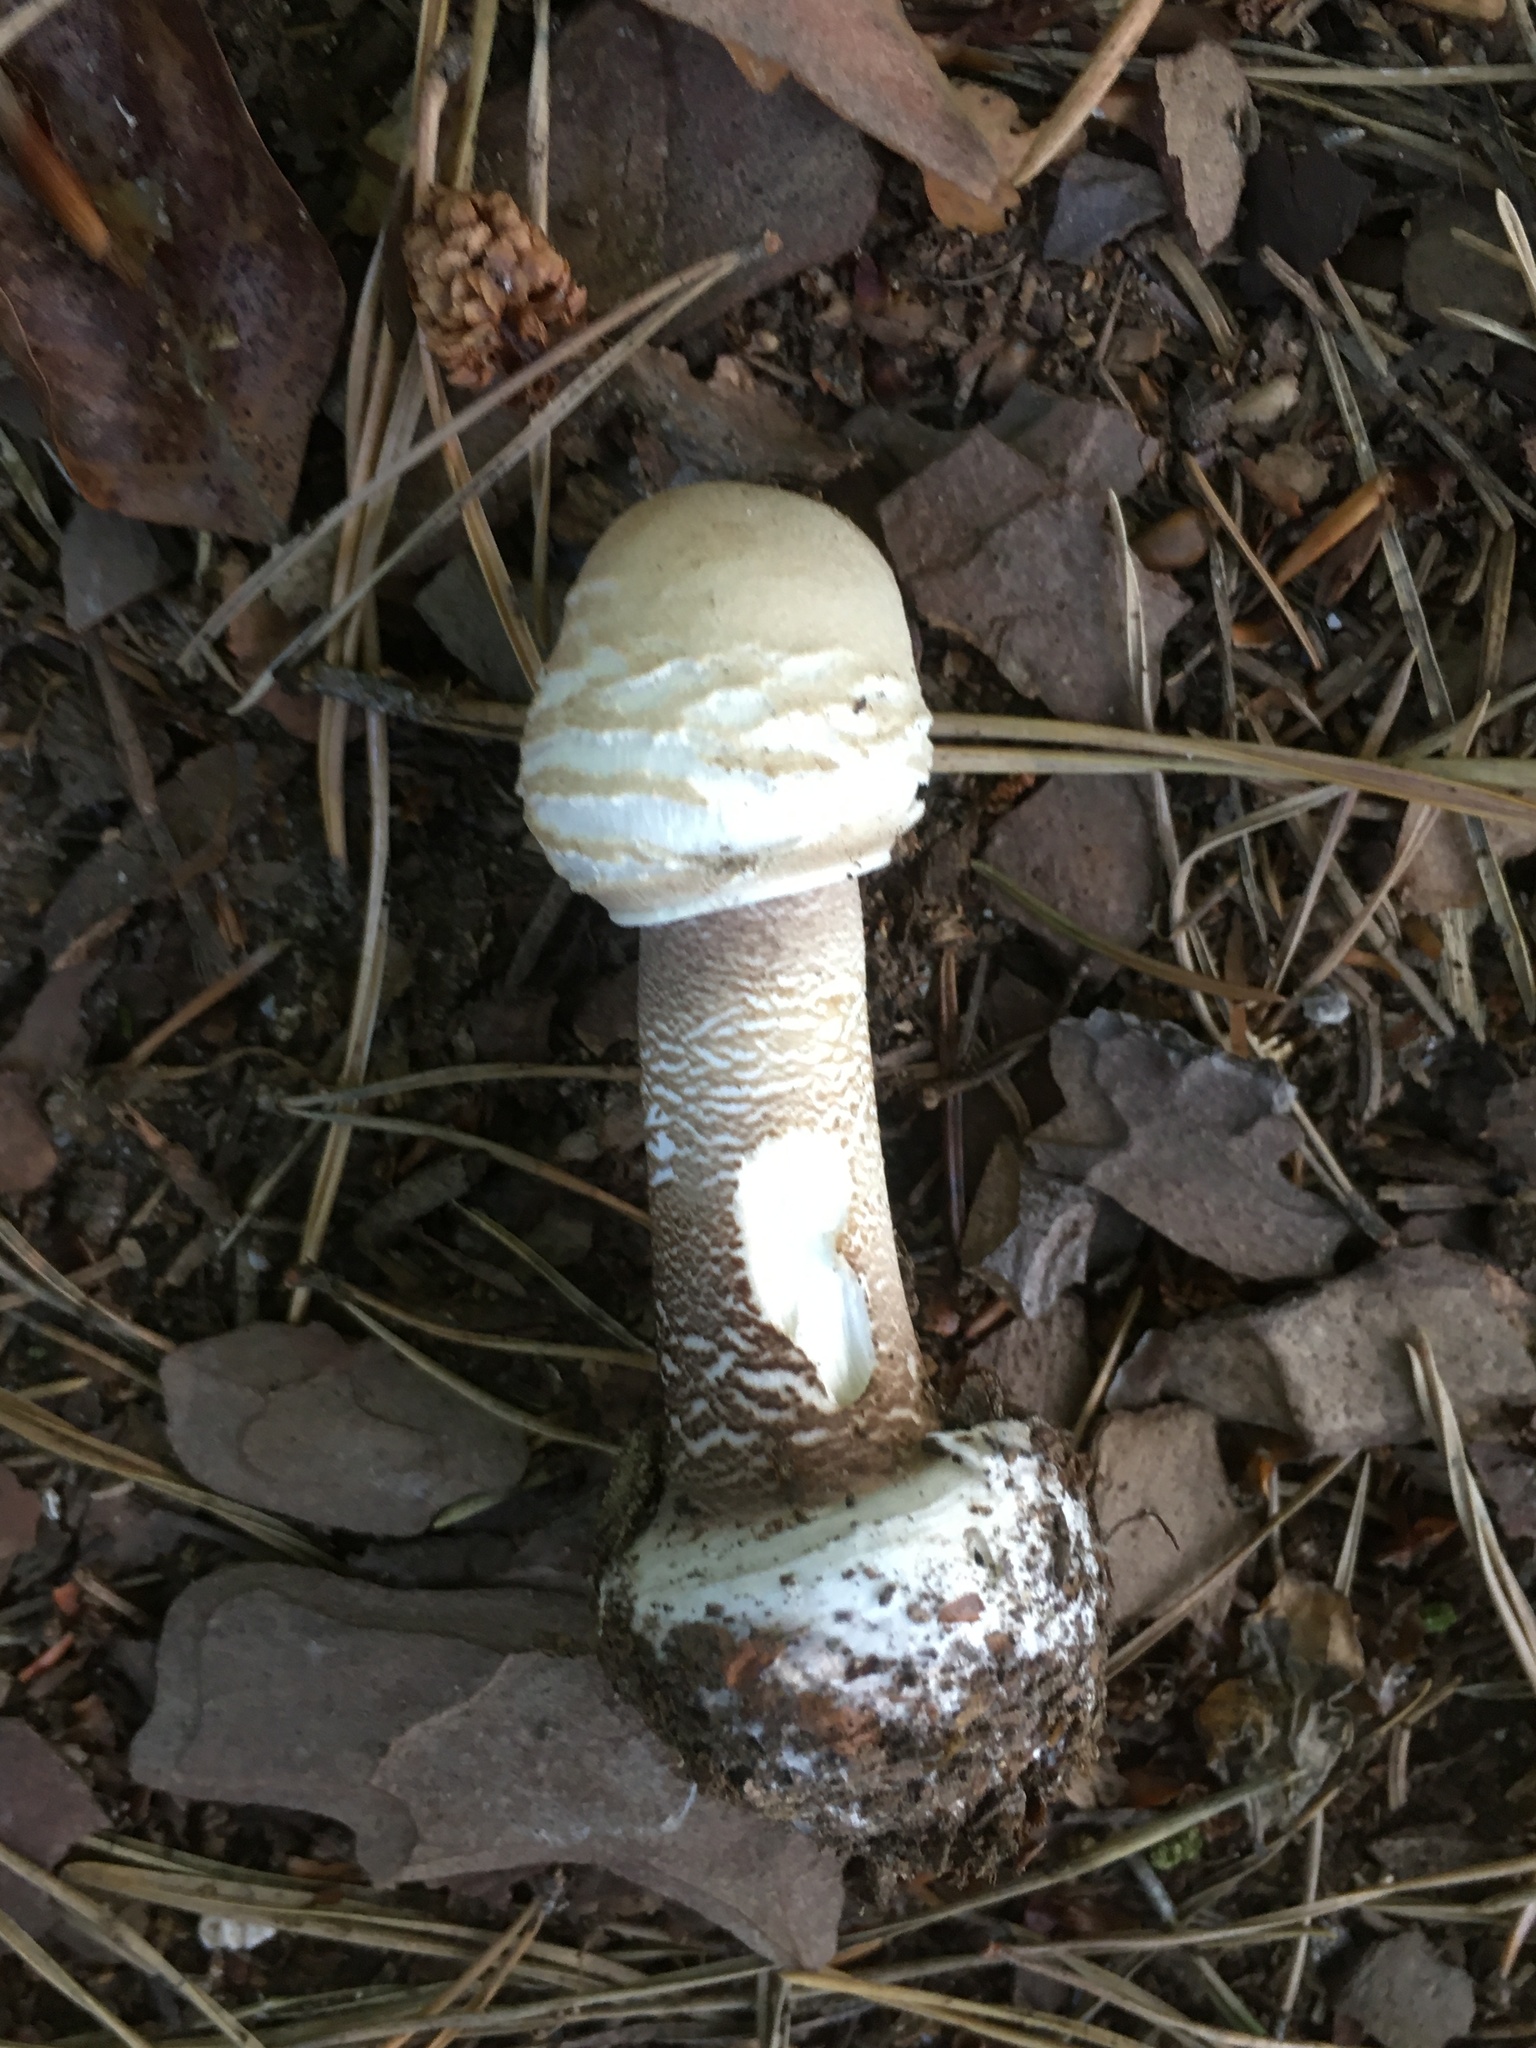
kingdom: Fungi
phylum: Basidiomycota
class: Agaricomycetes
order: Agaricales
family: Agaricaceae
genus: Macrolepiota
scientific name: Macrolepiota procera
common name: Parasol
